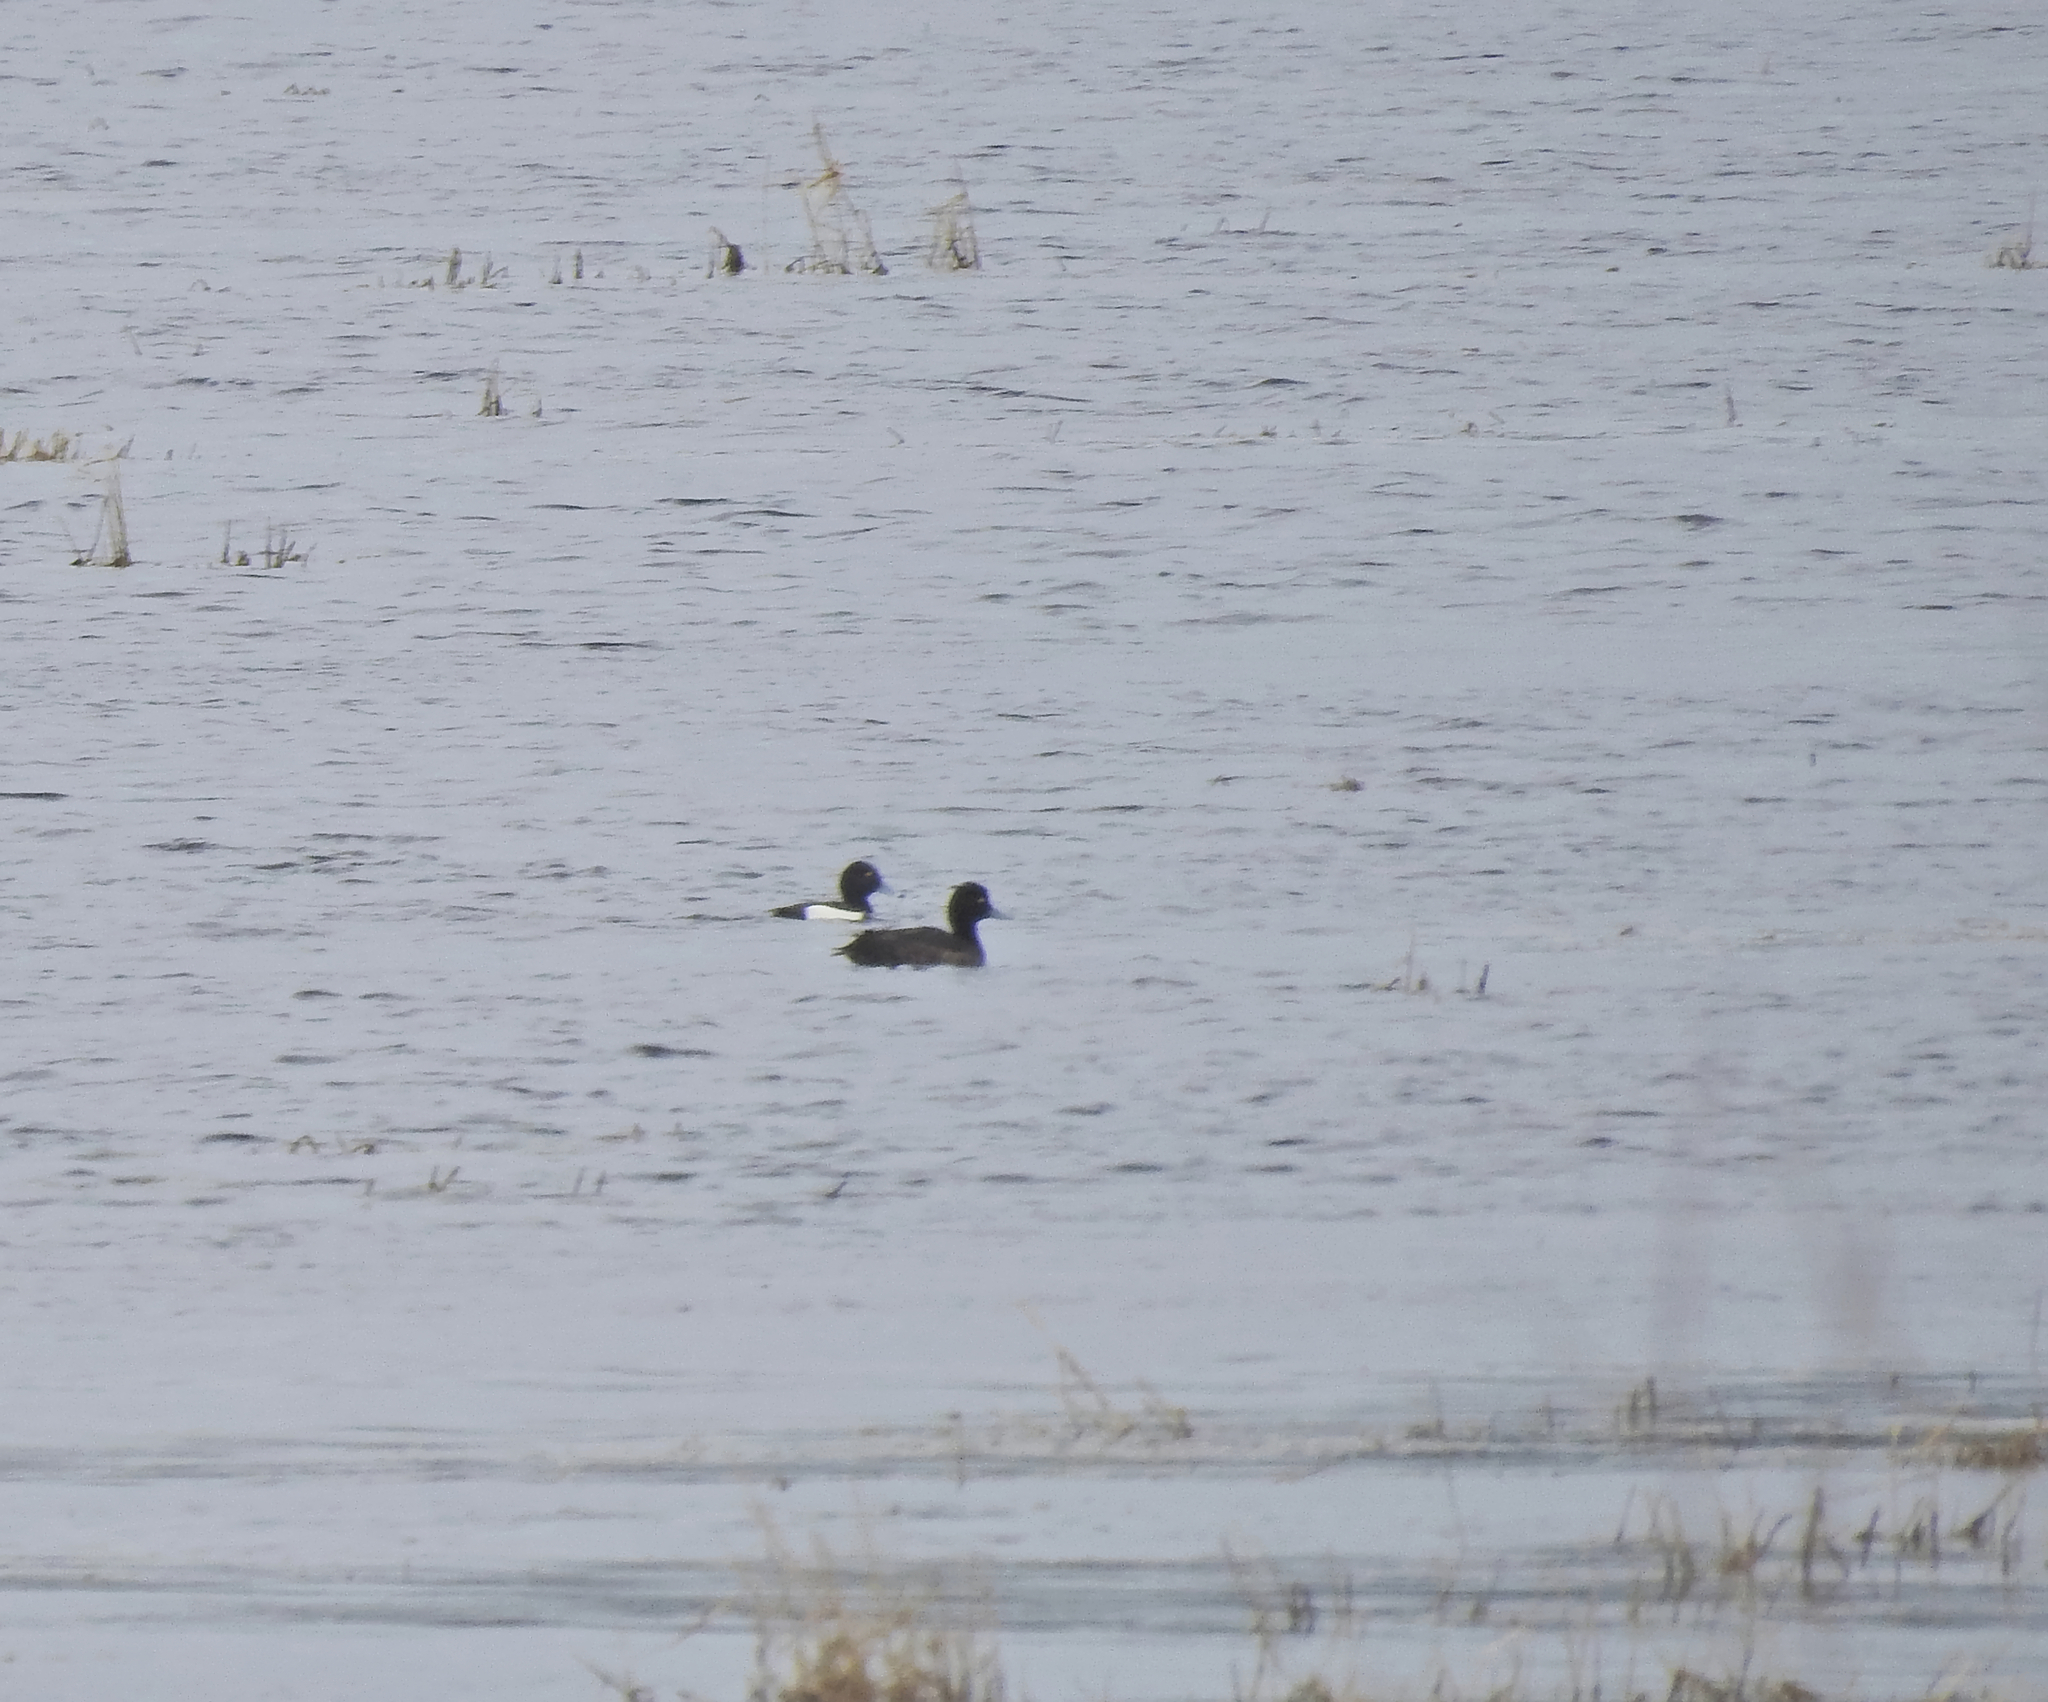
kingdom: Animalia
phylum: Chordata
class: Aves
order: Anseriformes
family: Anatidae
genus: Aythya
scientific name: Aythya fuligula
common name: Tufted duck
